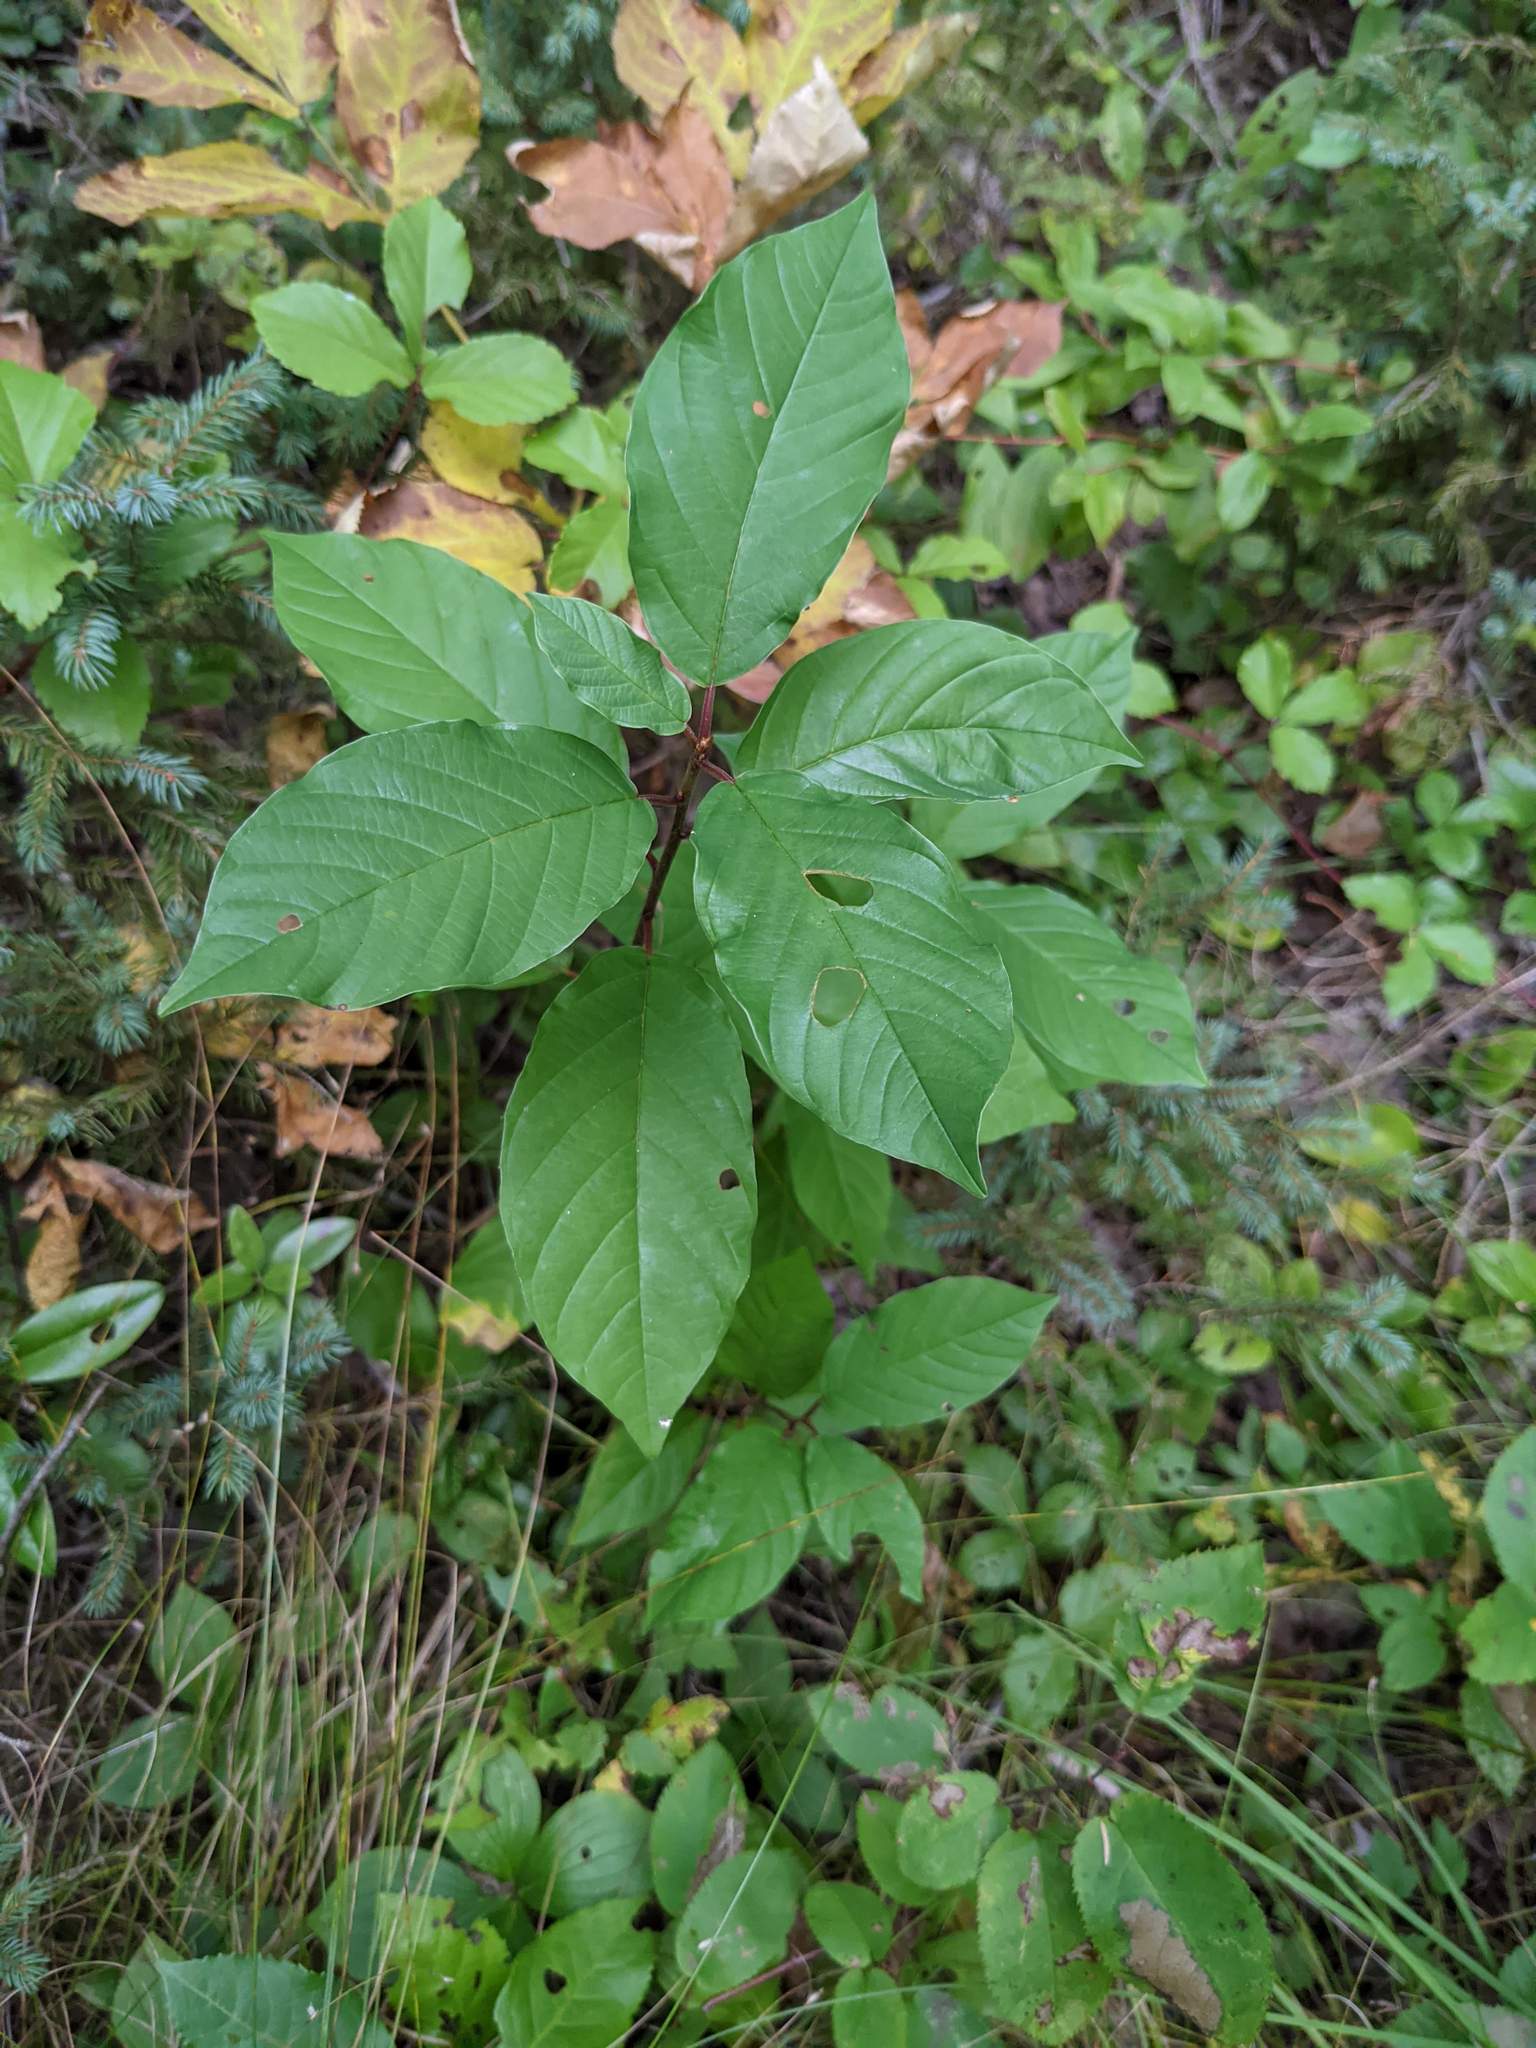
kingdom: Plantae
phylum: Tracheophyta
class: Magnoliopsida
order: Rosales
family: Rhamnaceae
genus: Frangula
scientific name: Frangula alnus
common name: Alder buckthorn
